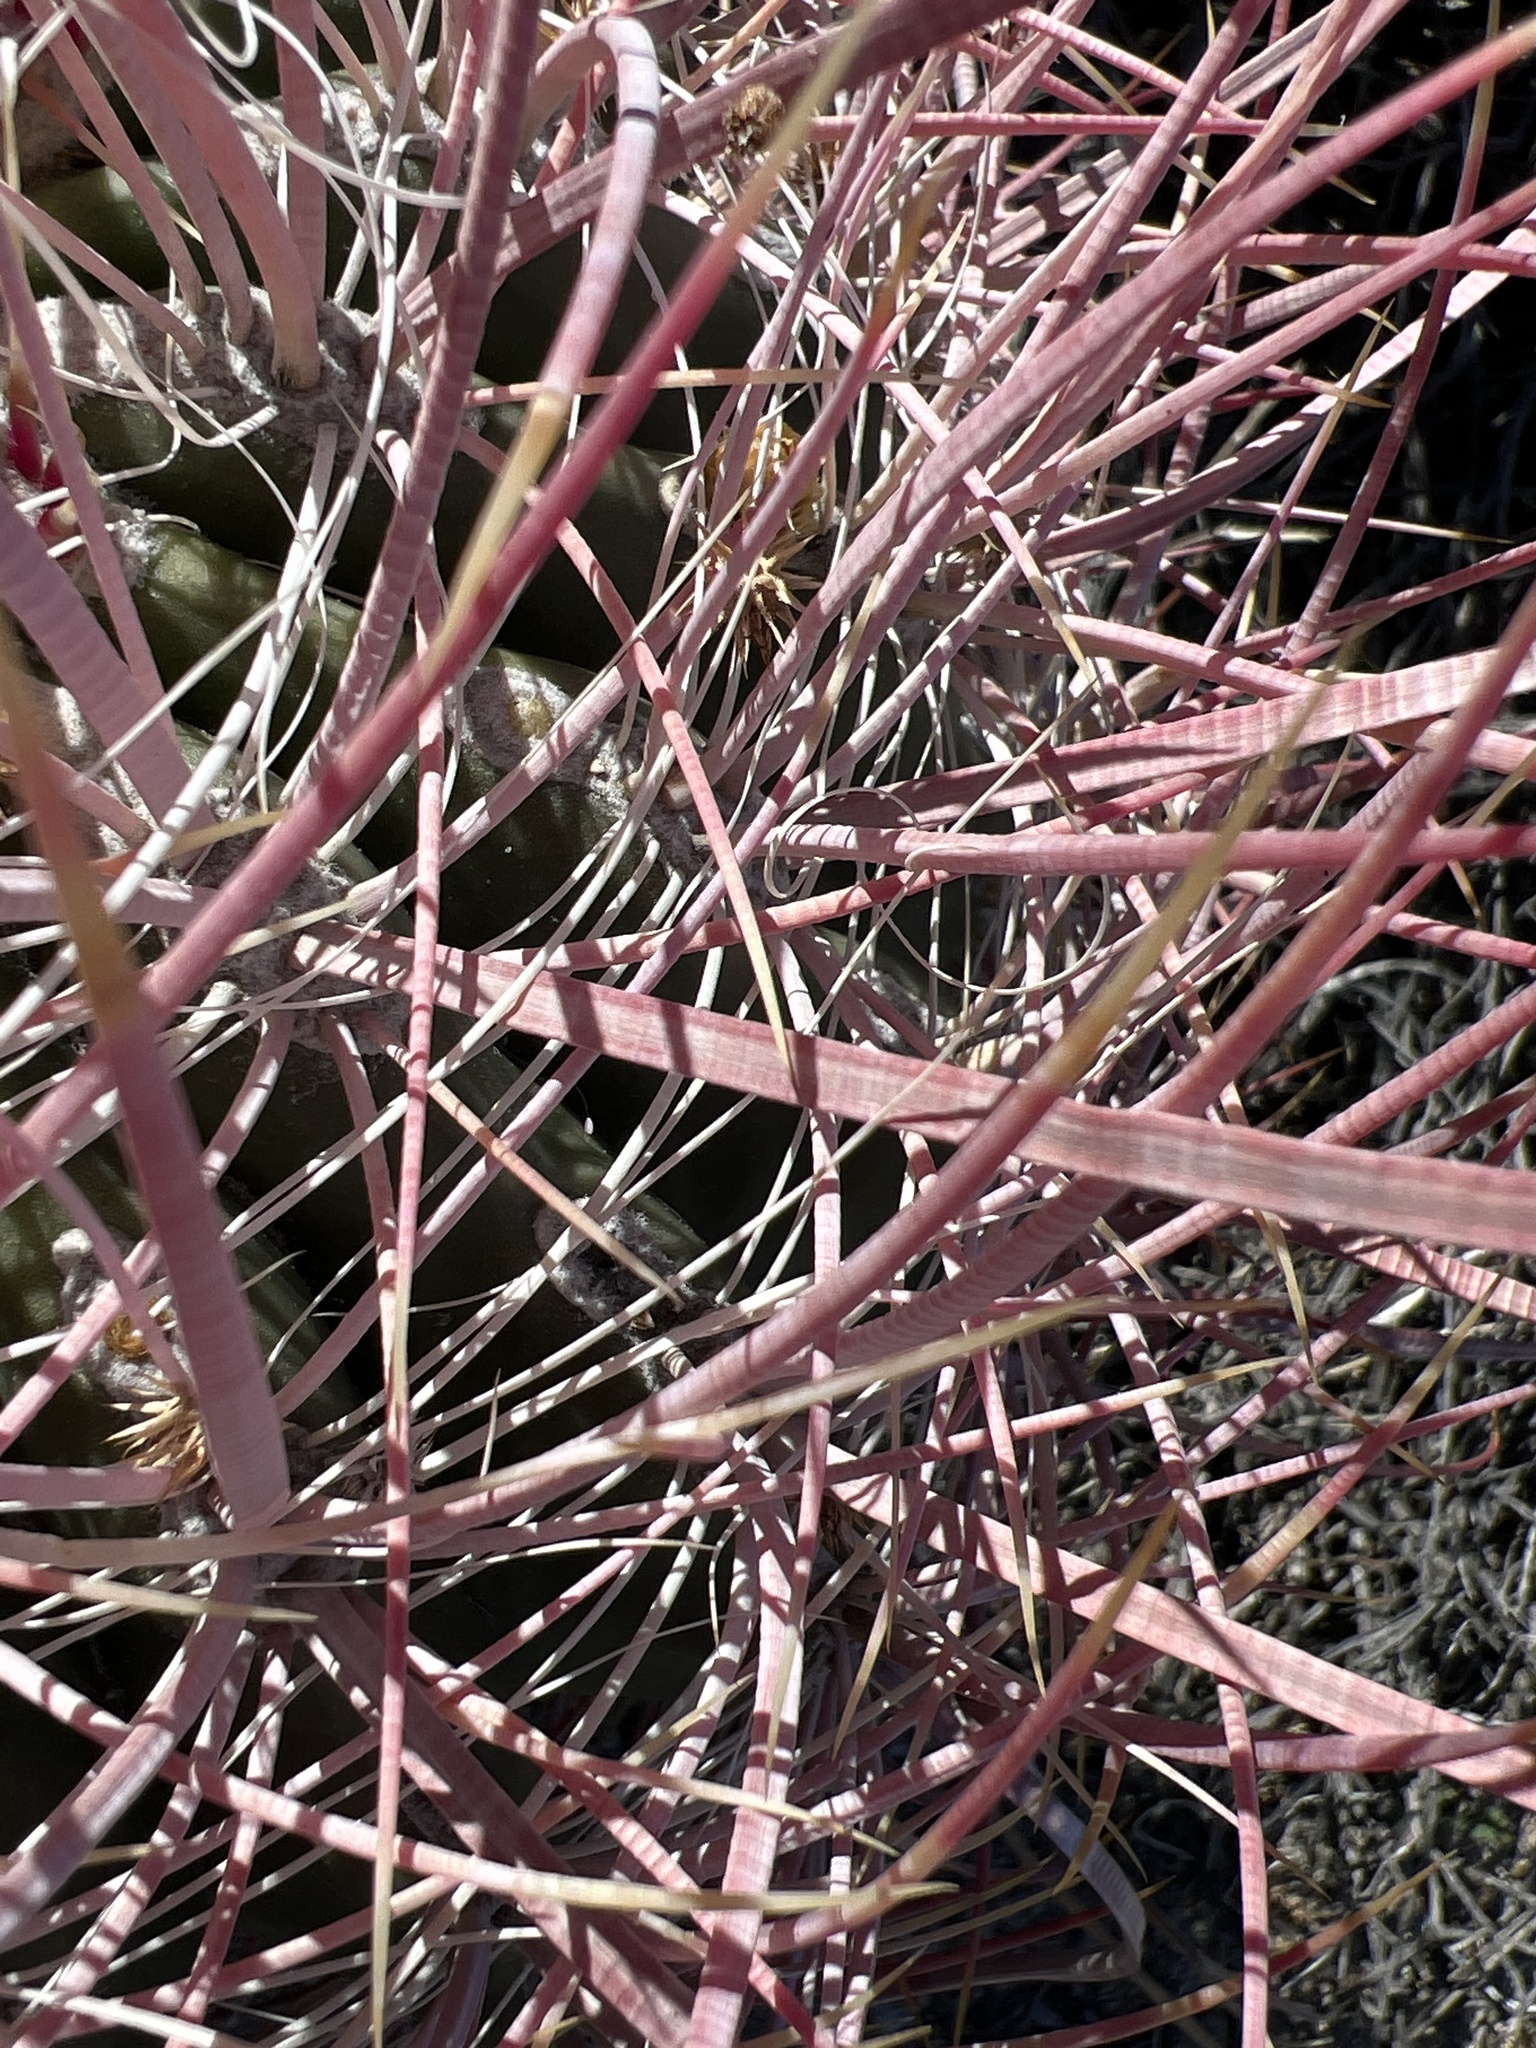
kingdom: Plantae
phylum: Tracheophyta
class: Magnoliopsida
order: Caryophyllales
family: Cactaceae
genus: Ferocactus
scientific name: Ferocactus cylindraceus
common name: California barrel cactus
